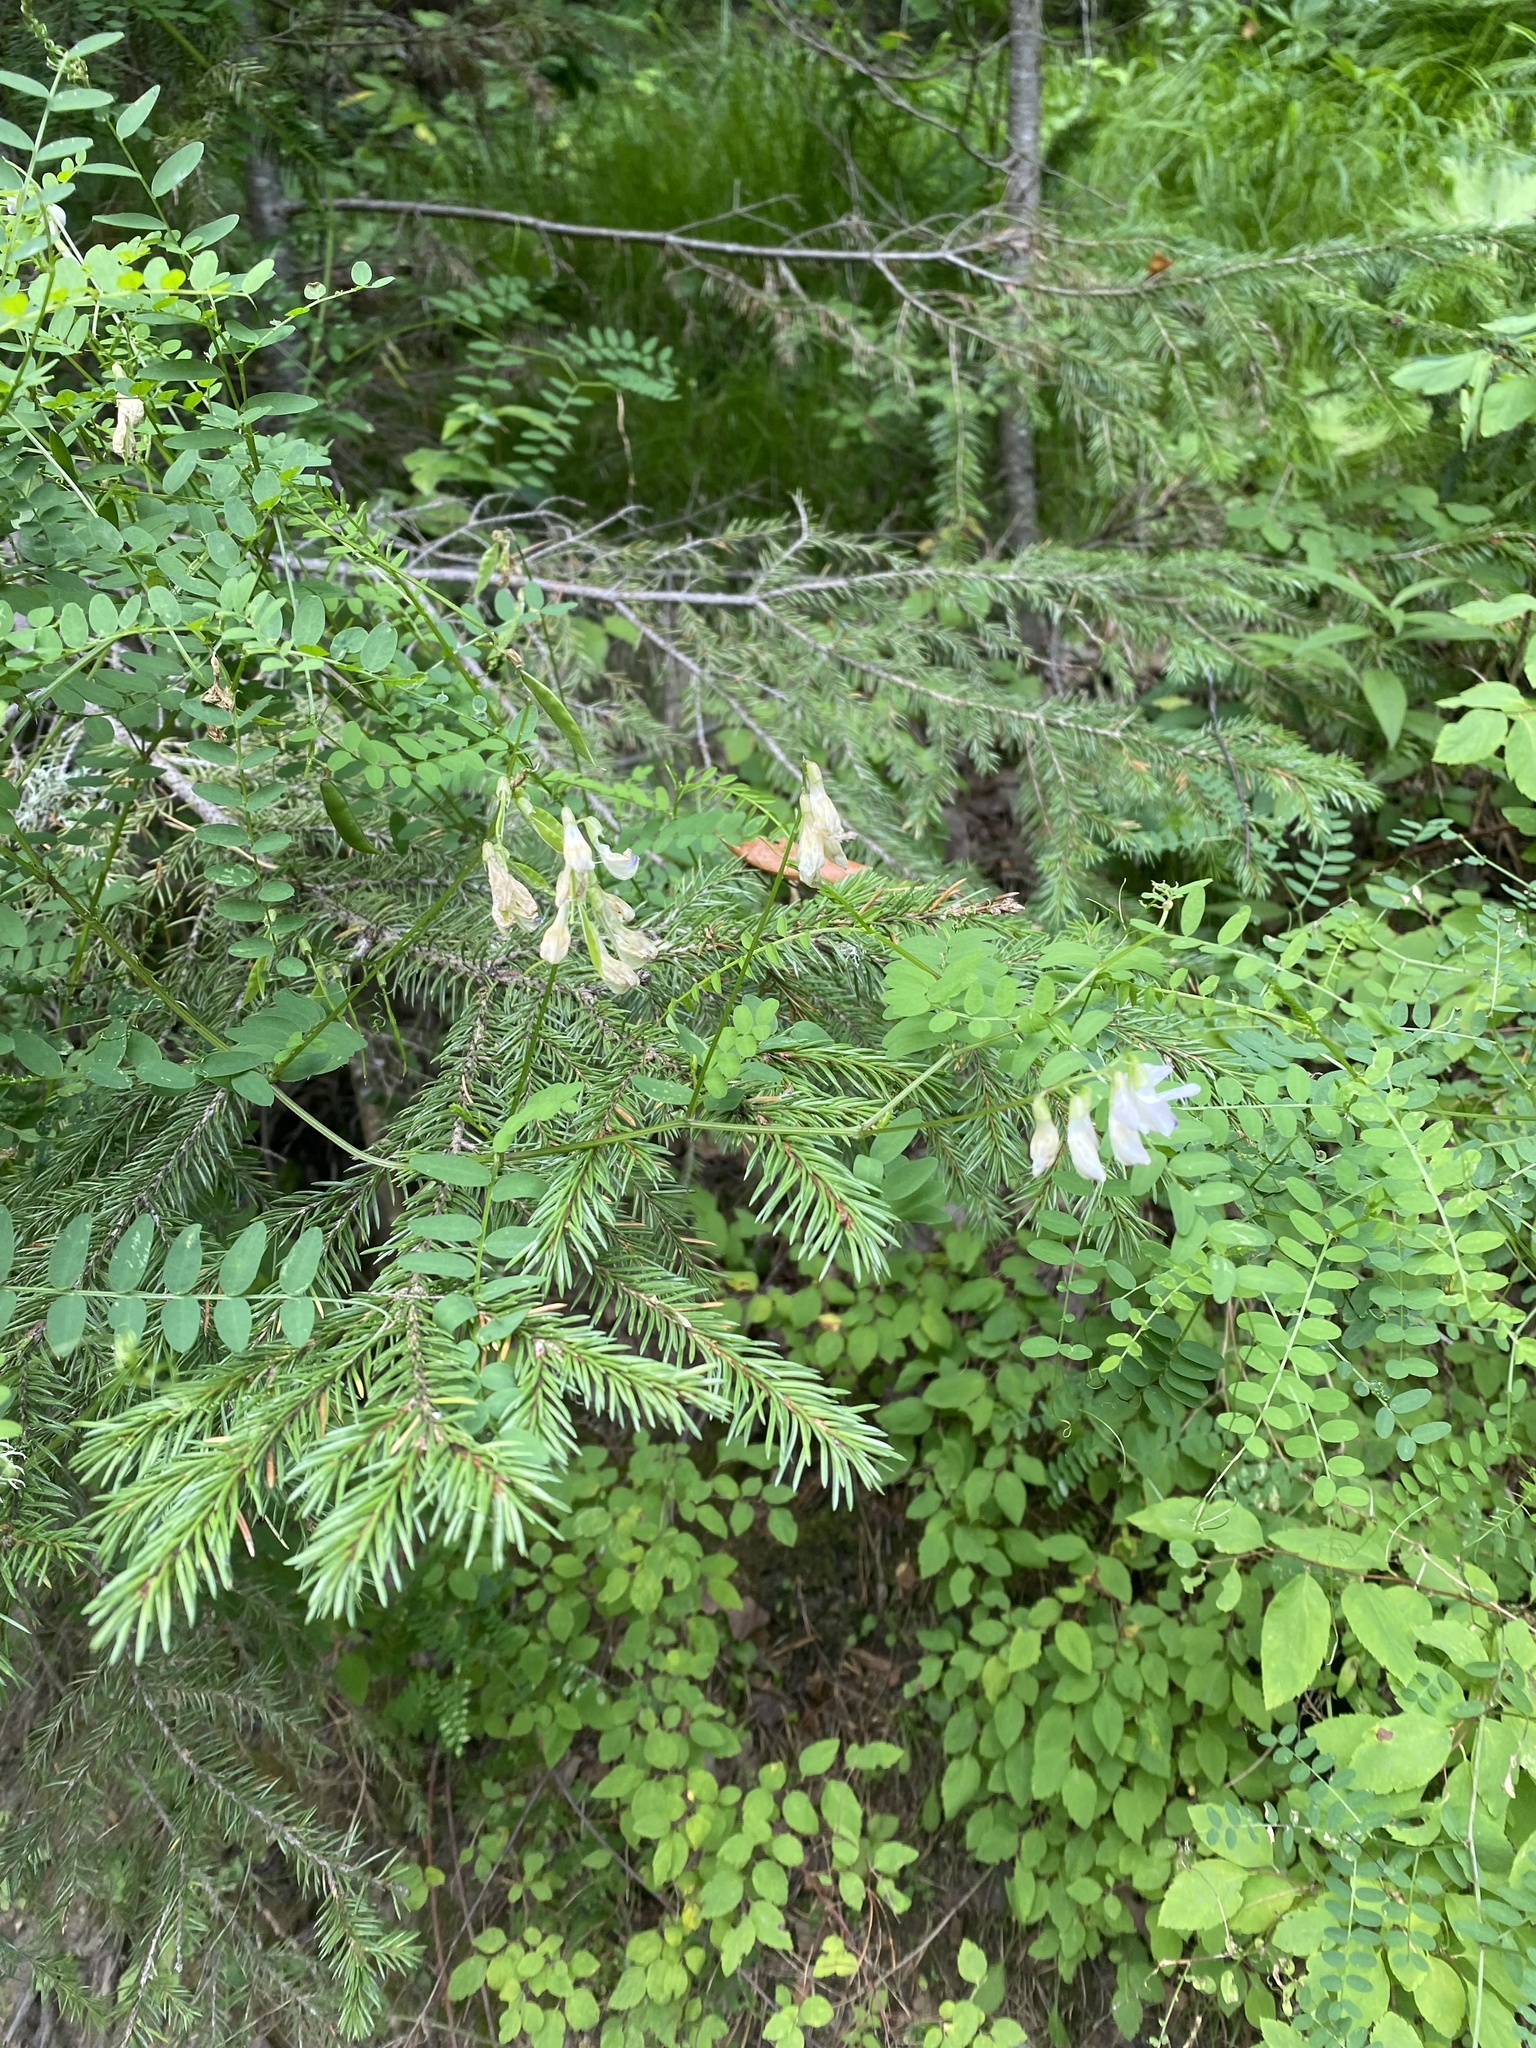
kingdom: Plantae
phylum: Tracheophyta
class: Magnoliopsida
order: Fabales
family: Fabaceae
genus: Vicia
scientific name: Vicia sylvatica
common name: Wood vetch
